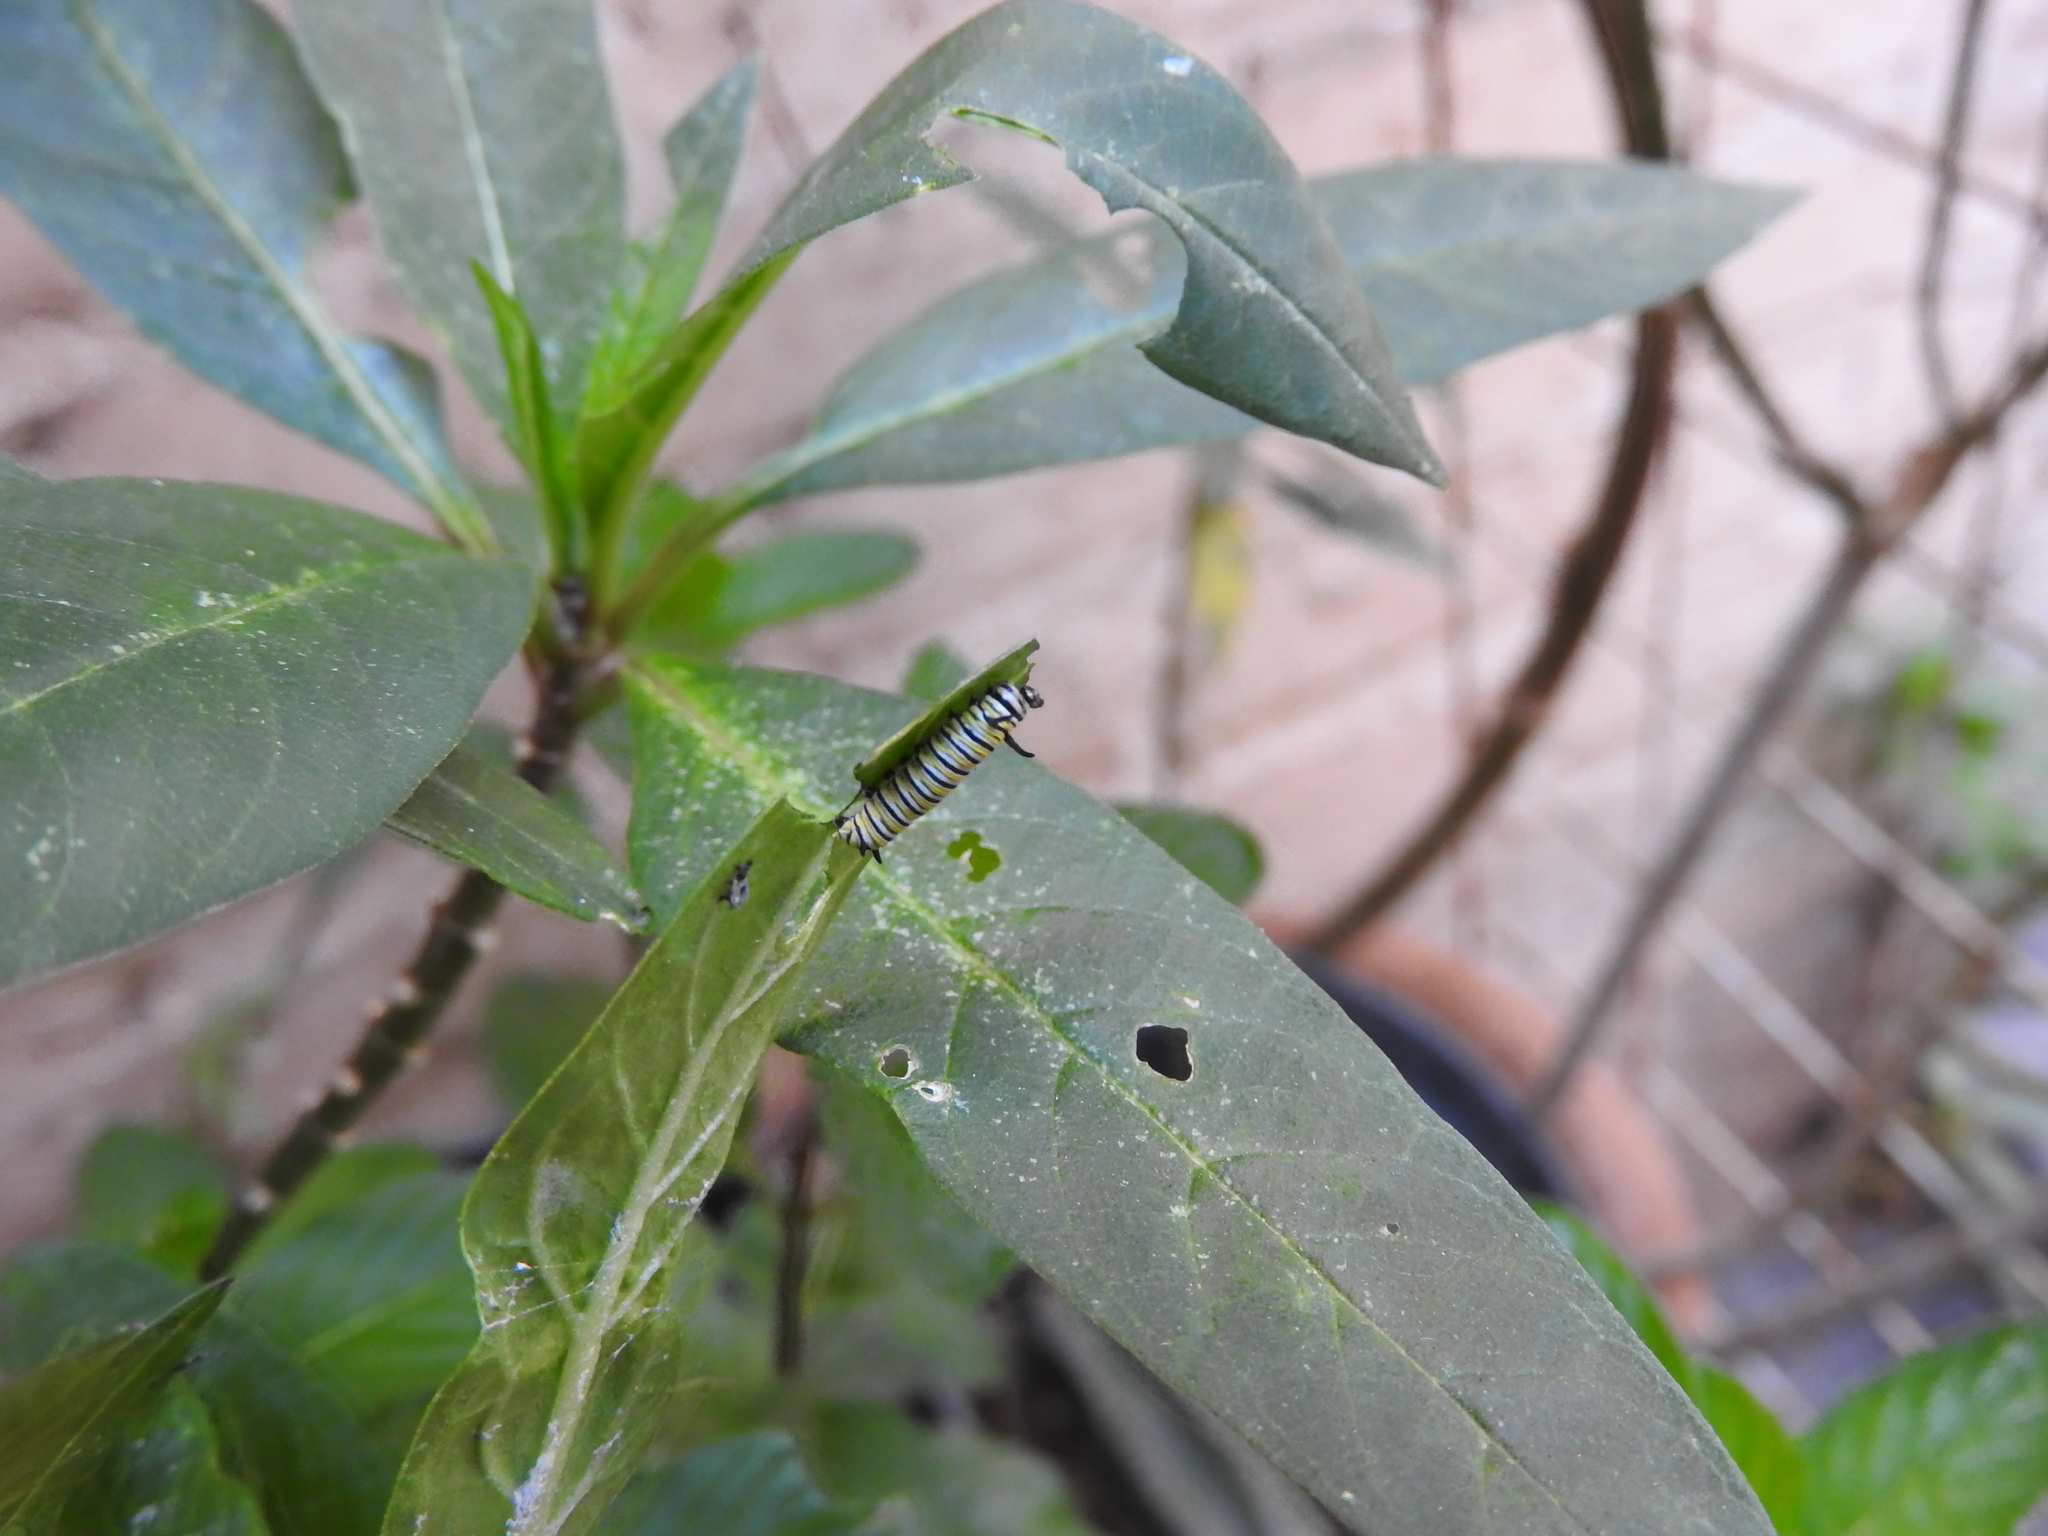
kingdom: Animalia
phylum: Arthropoda
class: Insecta
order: Lepidoptera
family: Nymphalidae
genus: Danaus
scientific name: Danaus plexippus
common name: Monarch
